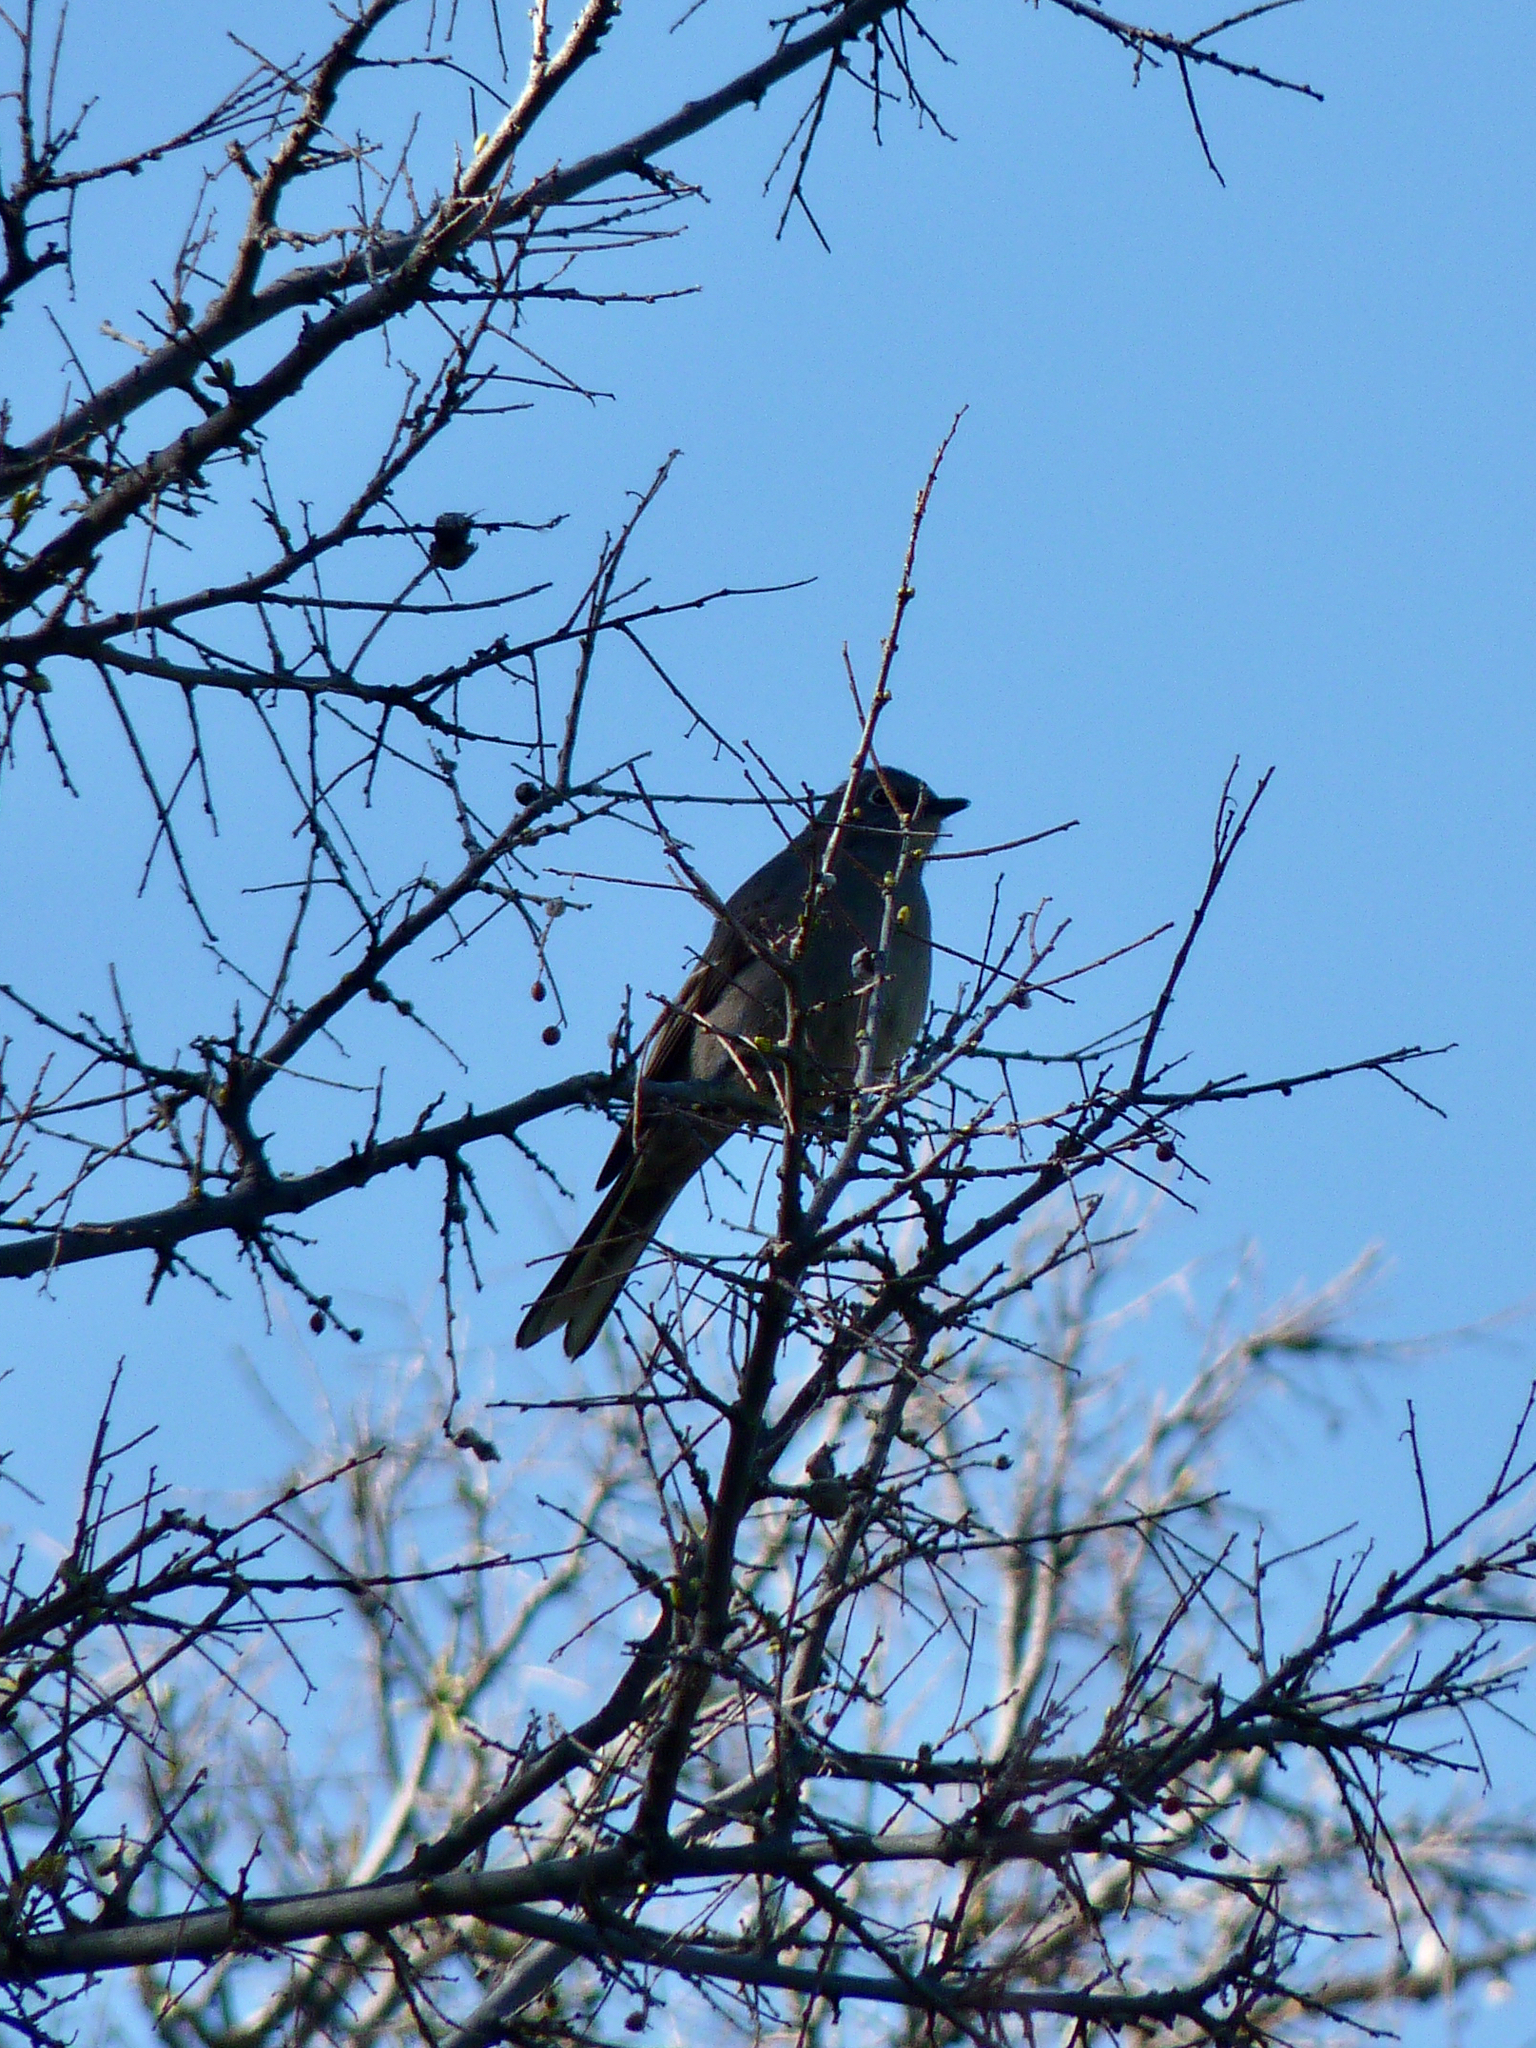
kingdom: Animalia
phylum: Chordata
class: Aves
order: Passeriformes
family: Turdidae
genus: Myadestes
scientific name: Myadestes townsendi
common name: Townsend's solitaire
